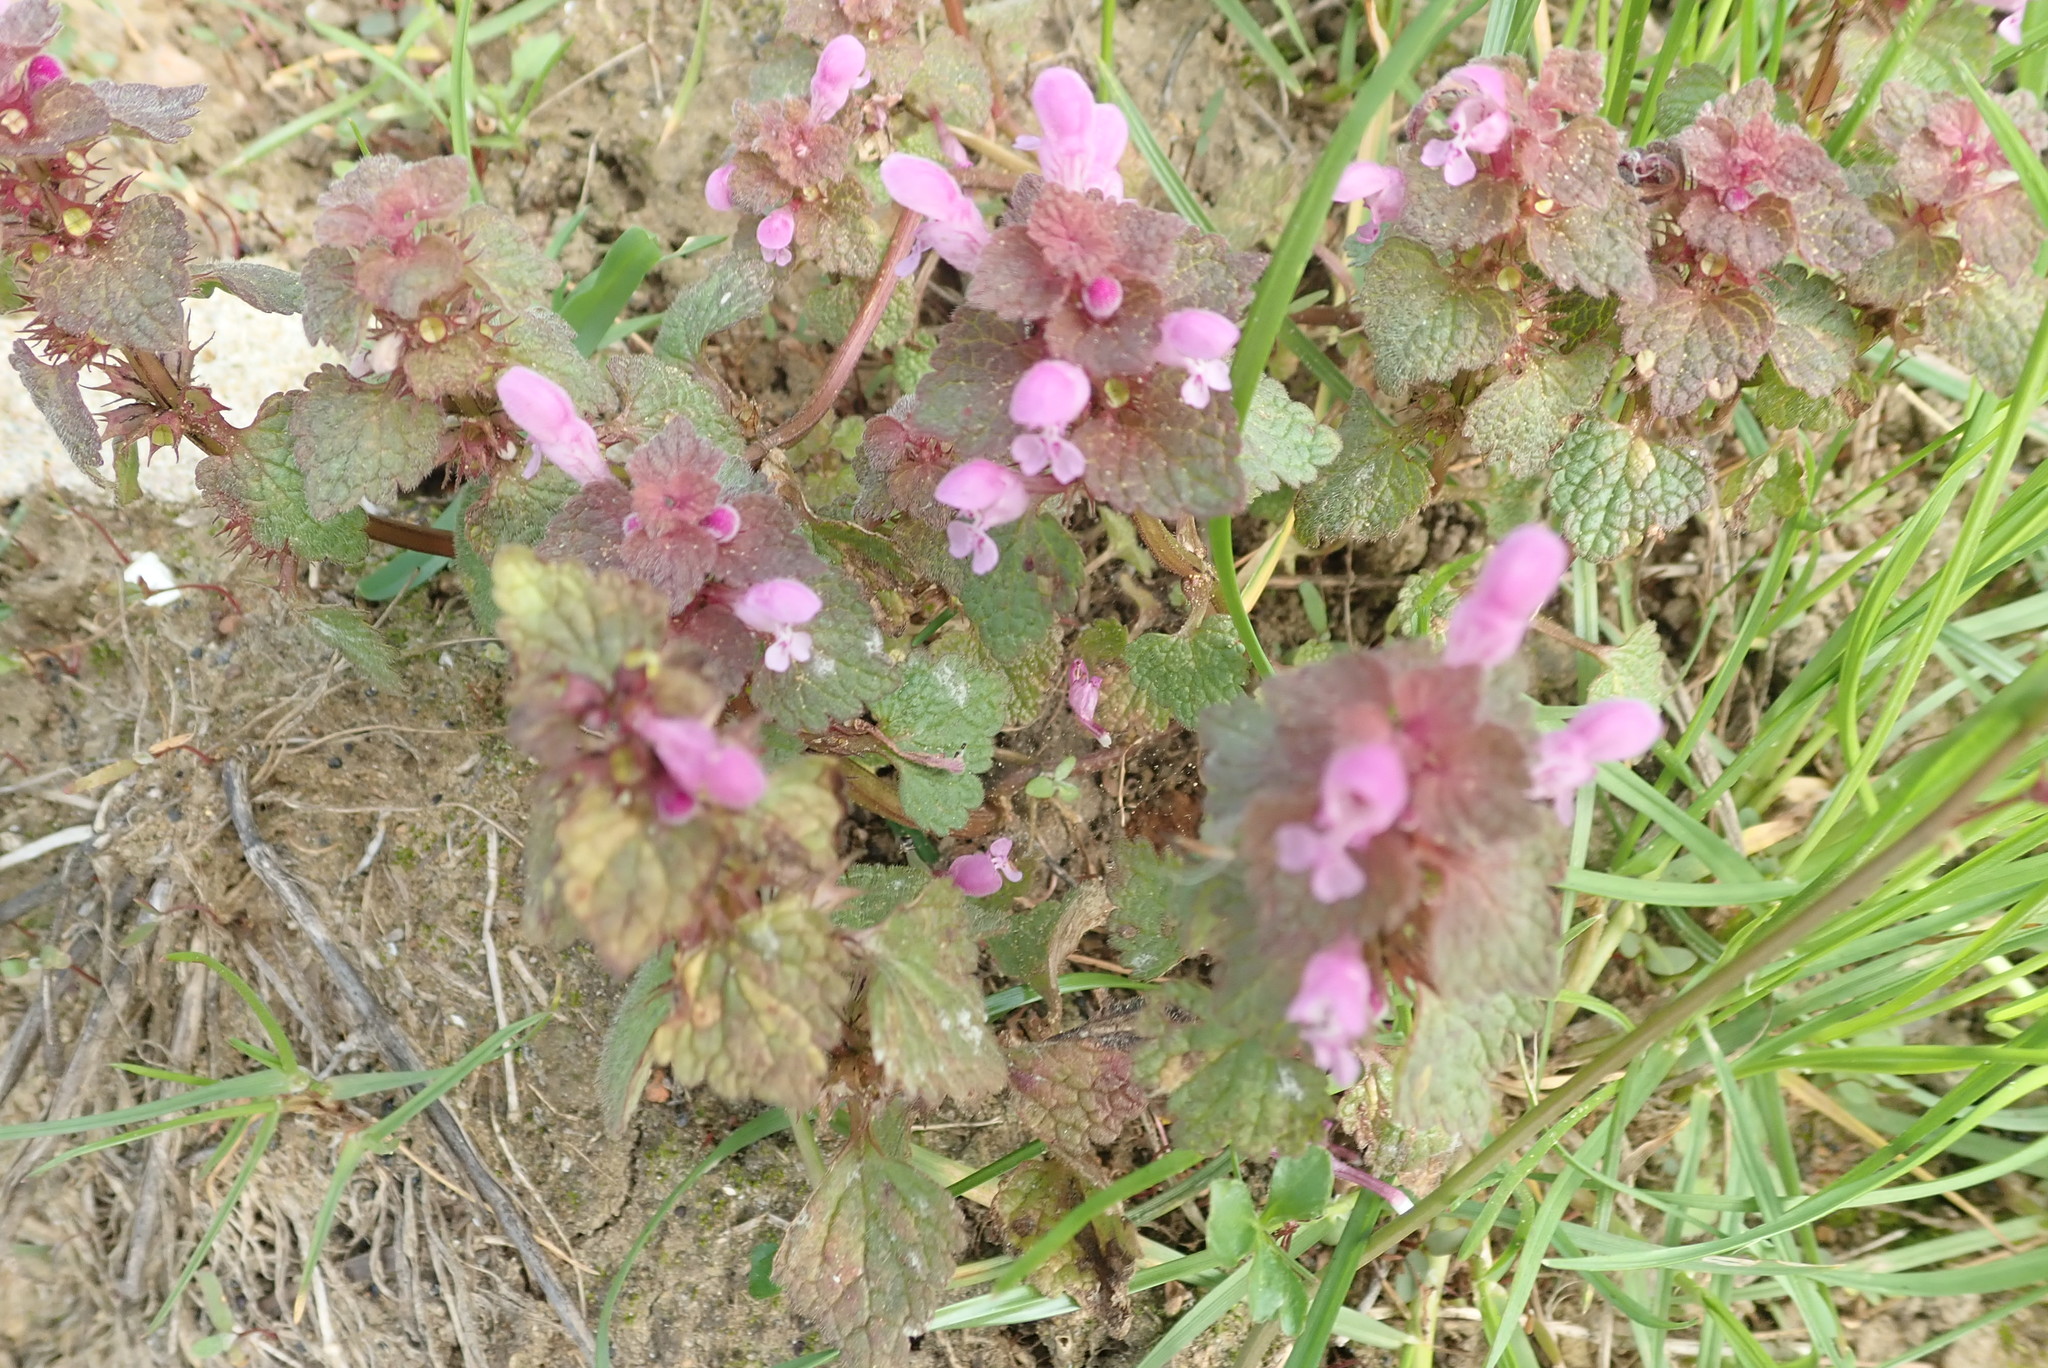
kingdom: Plantae
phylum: Tracheophyta
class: Magnoliopsida
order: Lamiales
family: Lamiaceae
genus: Lamium
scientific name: Lamium purpureum
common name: Red dead-nettle
